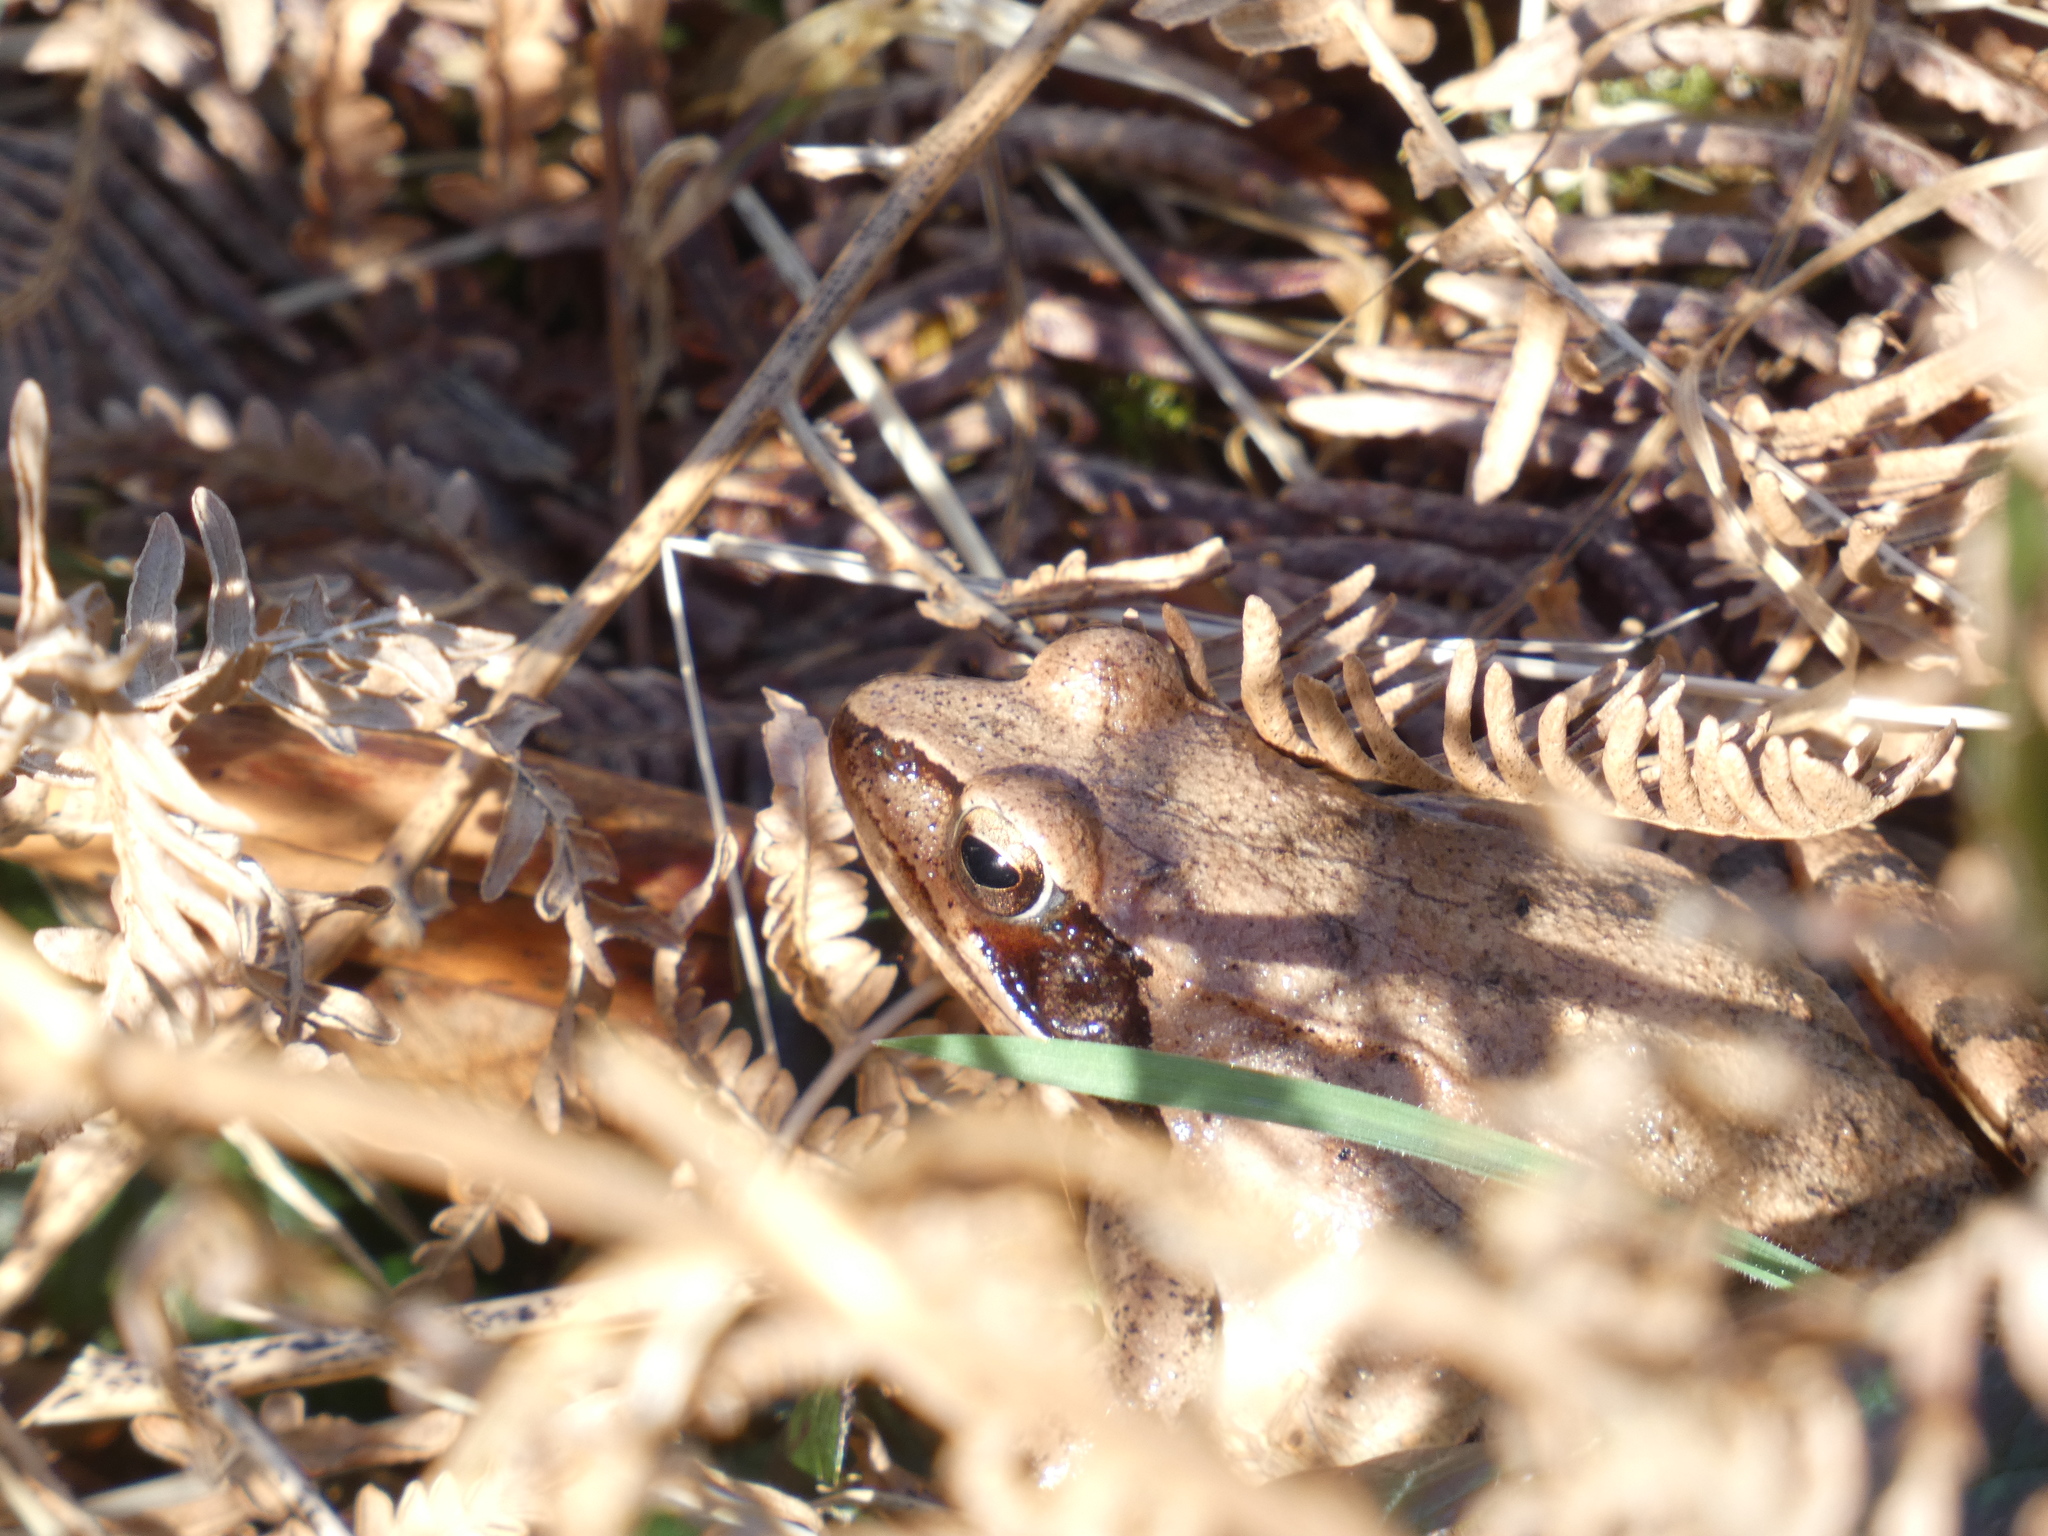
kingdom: Animalia
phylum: Chordata
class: Amphibia
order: Anura
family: Ranidae
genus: Rana
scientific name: Rana dalmatina
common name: Agile frog
